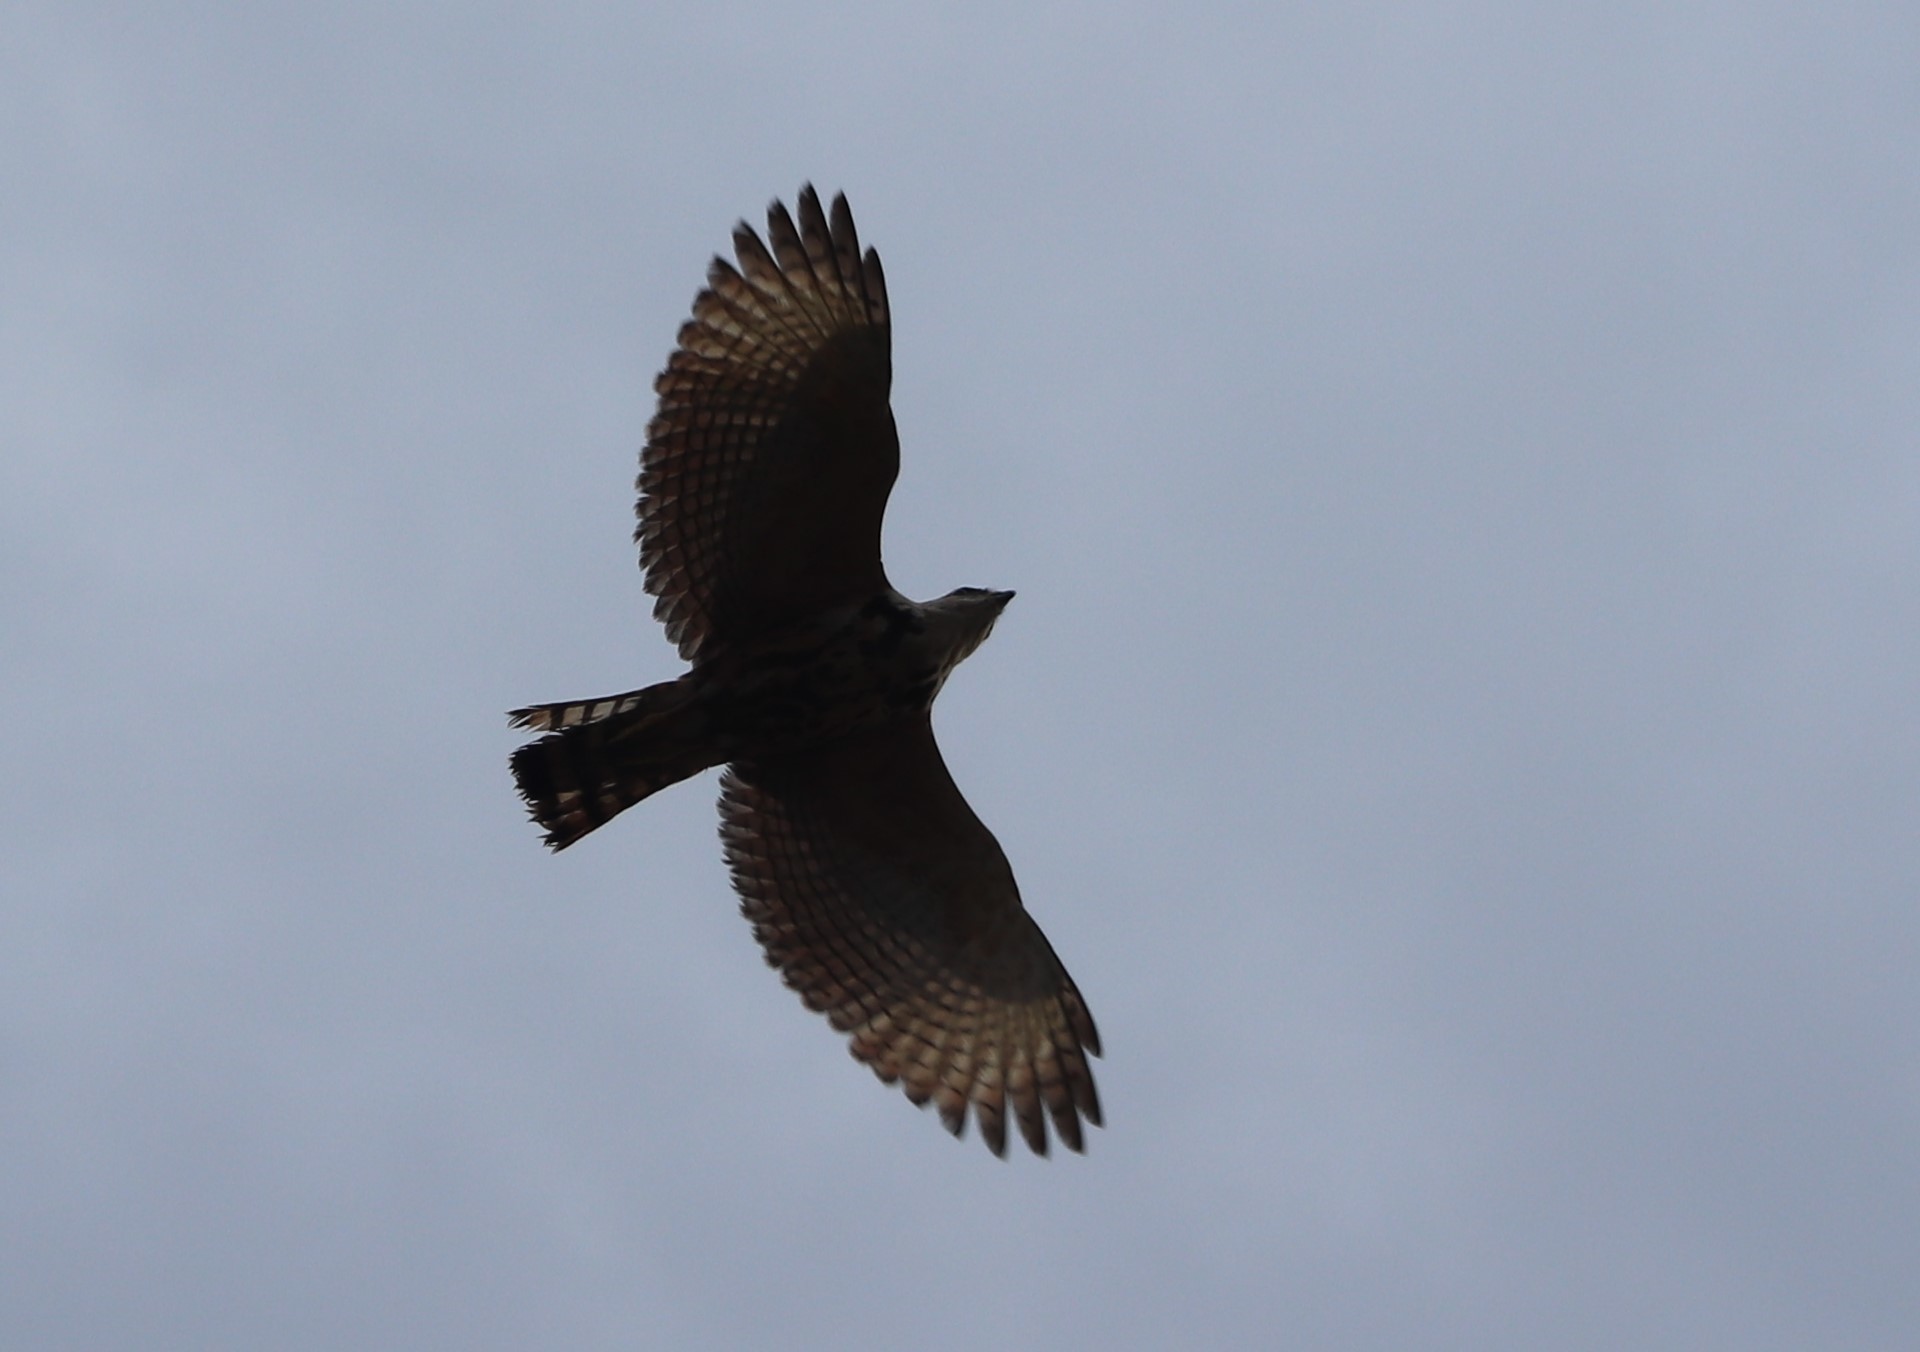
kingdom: Animalia
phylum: Chordata
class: Aves
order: Accipitriformes
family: Accipitridae
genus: Buteo
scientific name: Buteo nitidus
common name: Grey-lined hawk
